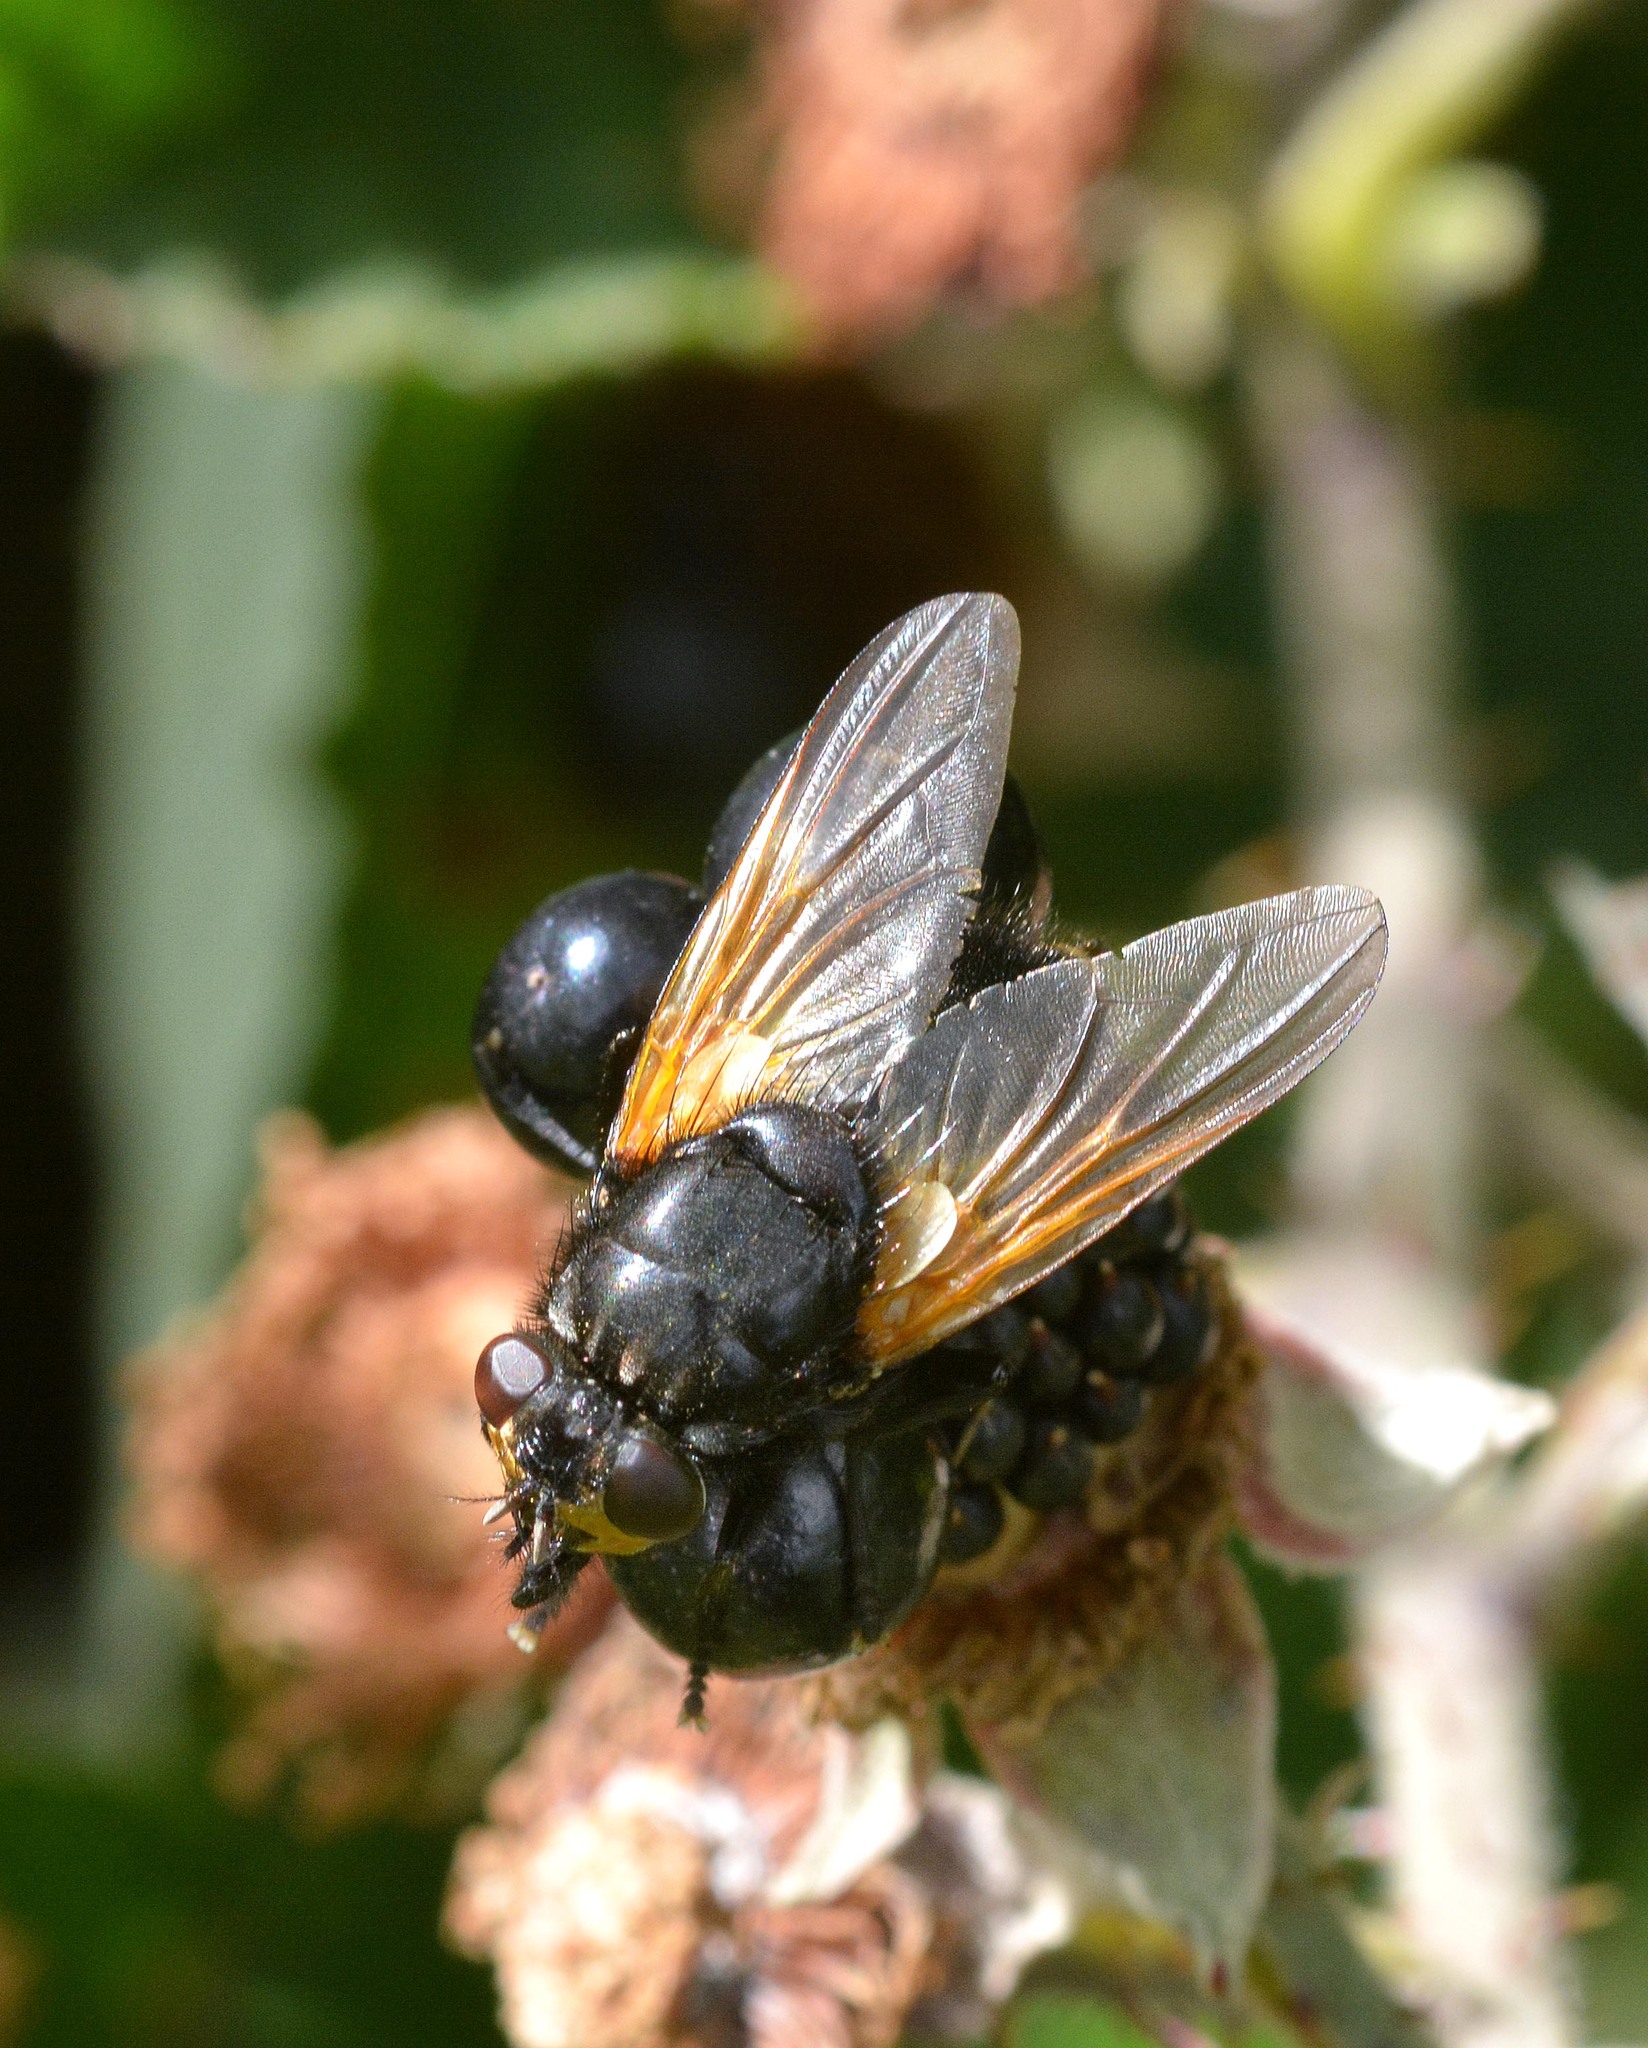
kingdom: Animalia
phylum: Arthropoda
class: Insecta
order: Diptera
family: Muscidae
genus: Mesembrina
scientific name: Mesembrina meridiana
